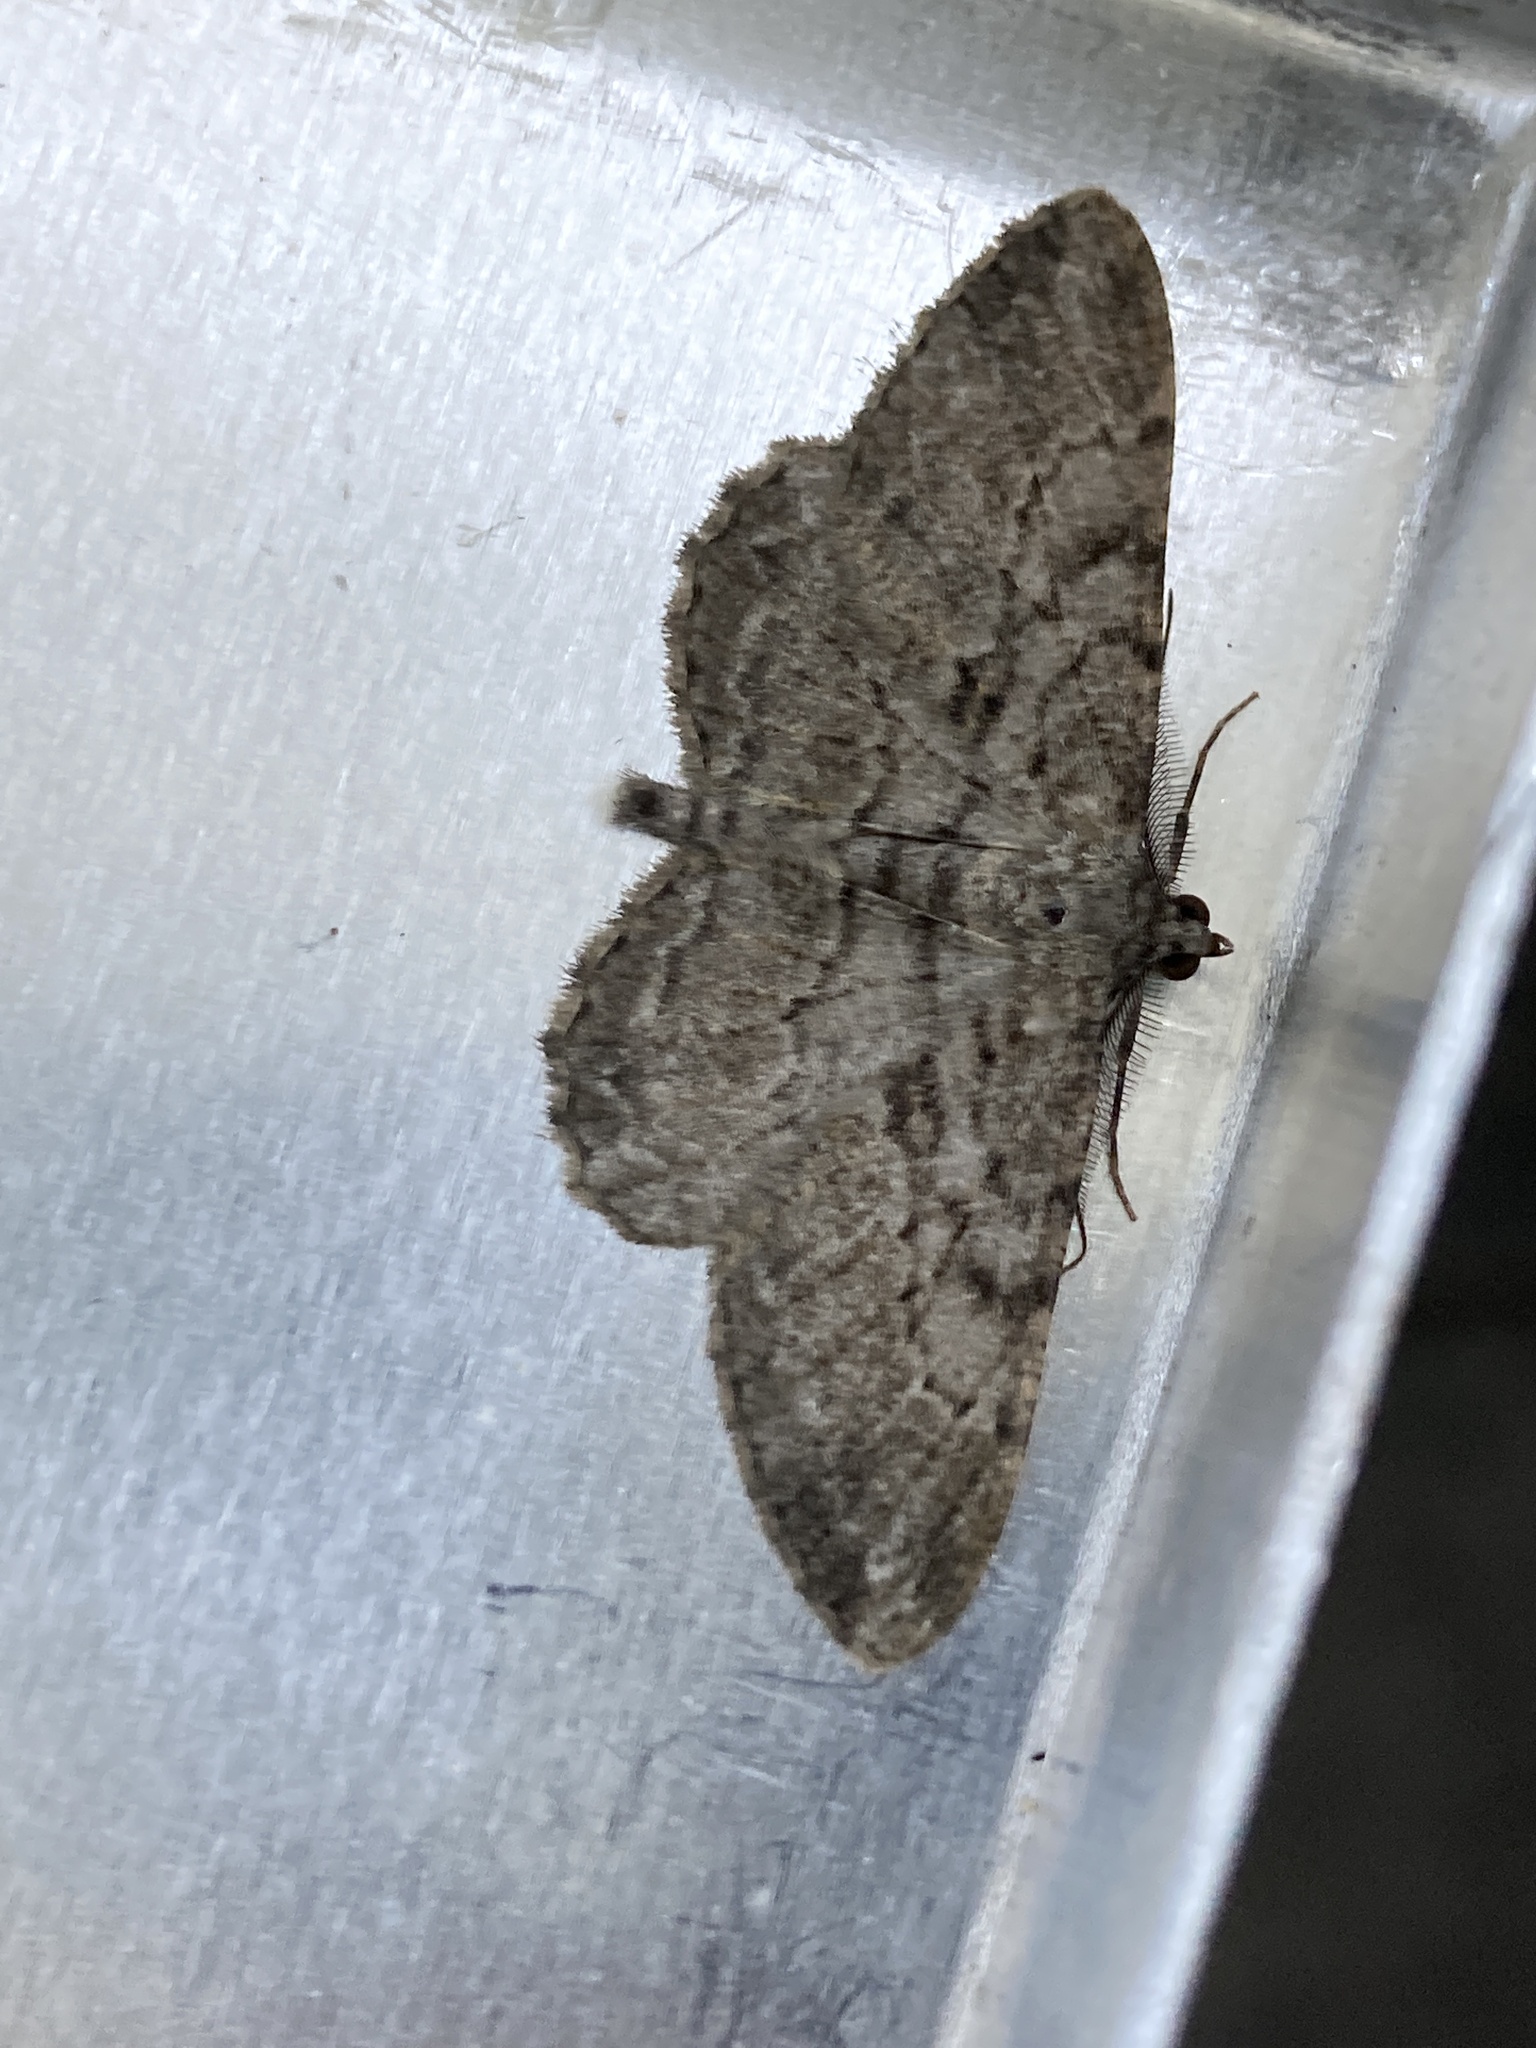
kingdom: Animalia
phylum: Arthropoda
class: Insecta
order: Lepidoptera
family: Geometridae
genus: Peribatodes
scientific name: Peribatodes rhomboidaria
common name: Willow beauty
